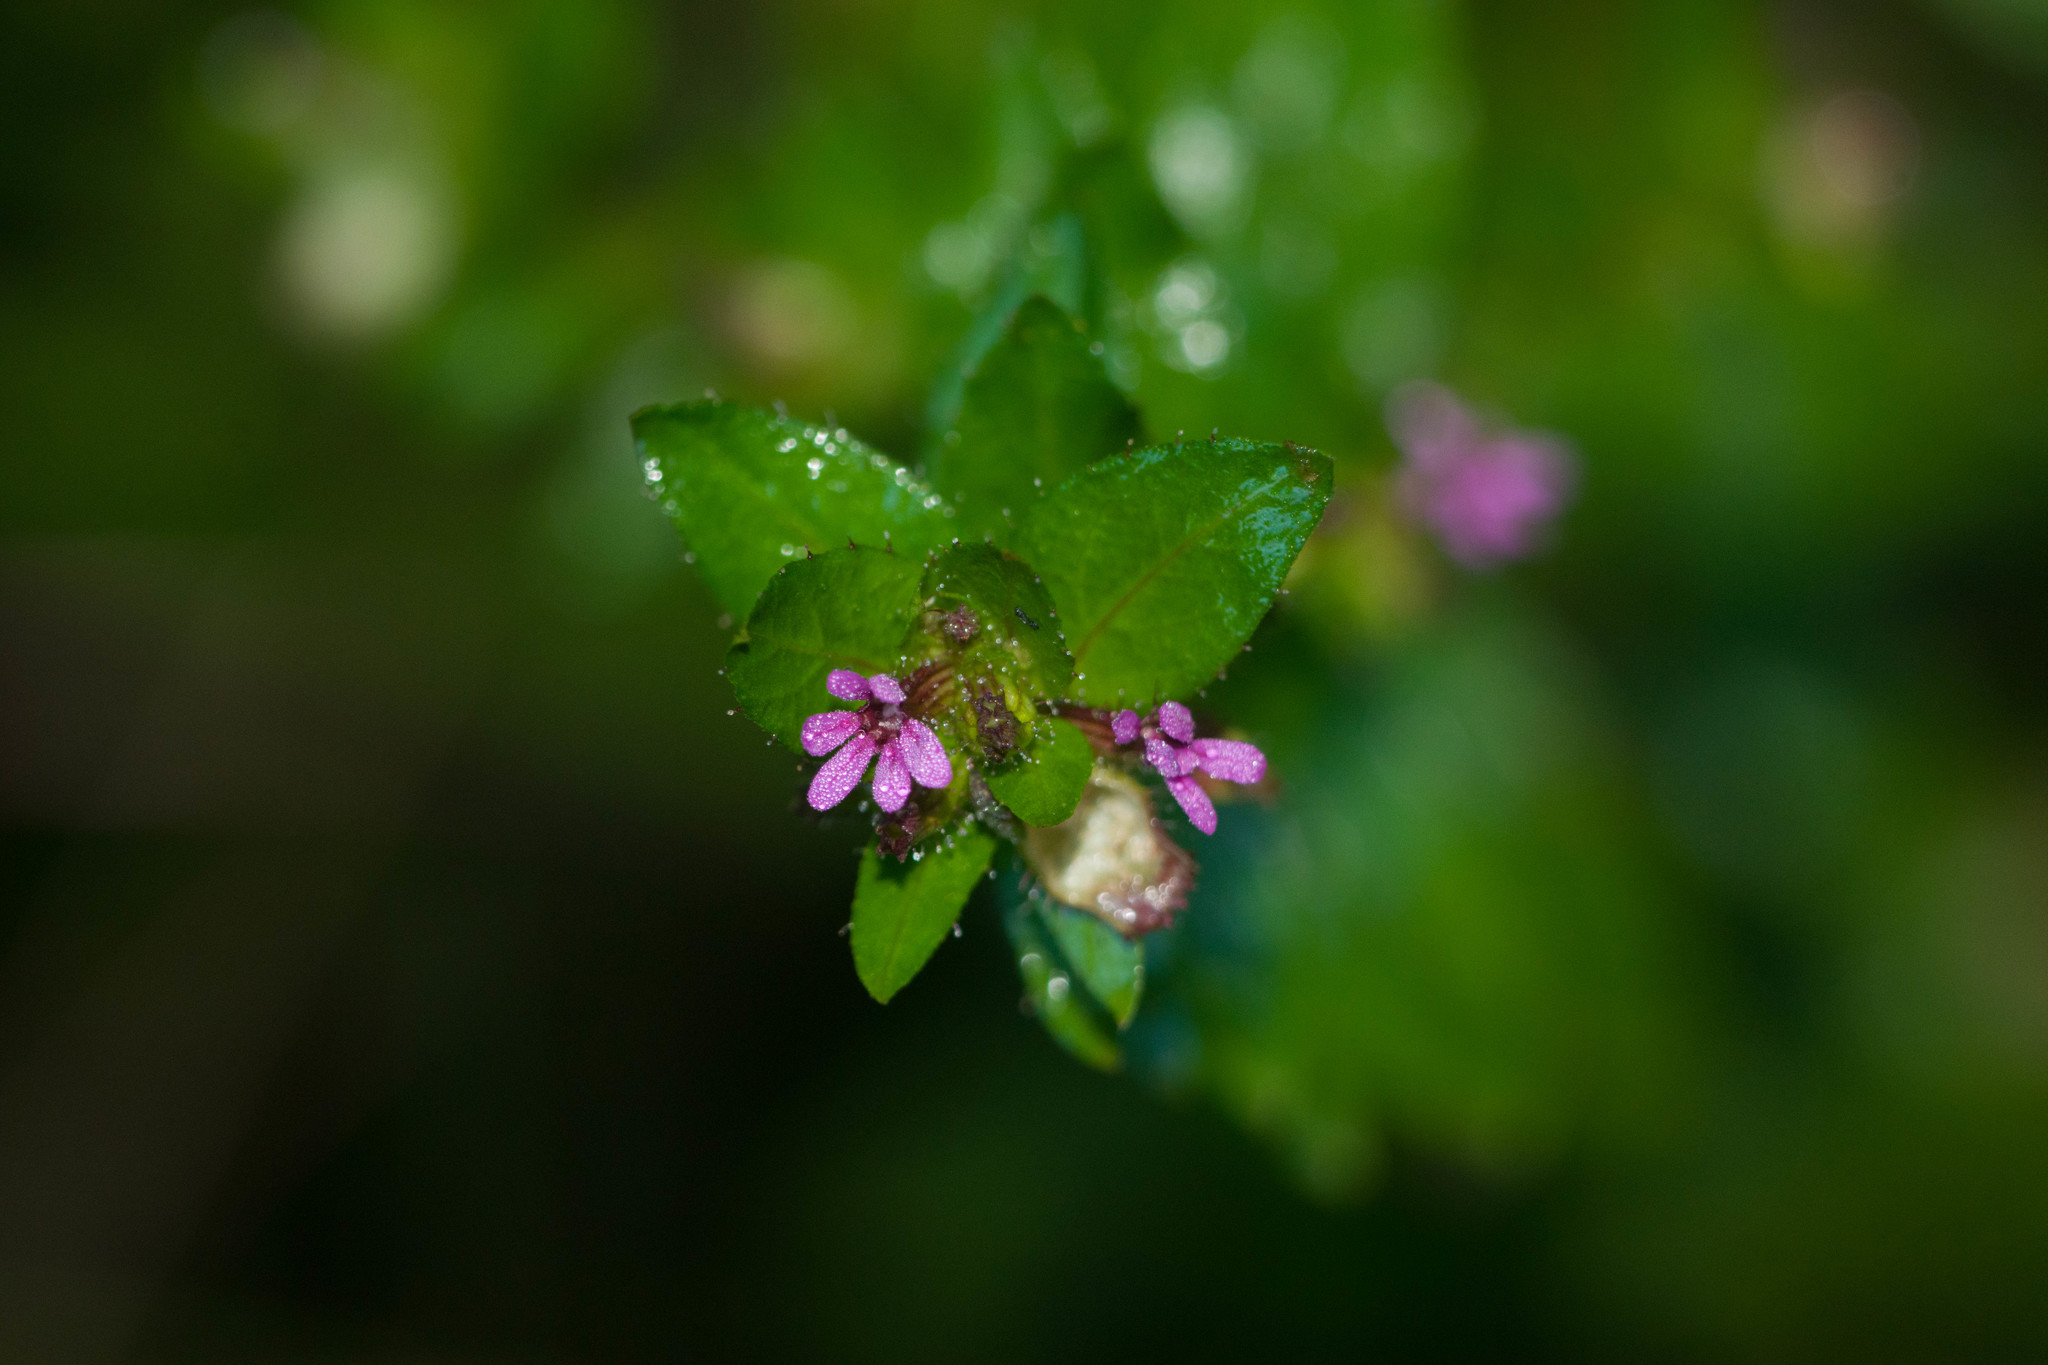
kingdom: Plantae
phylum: Tracheophyta
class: Magnoliopsida
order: Myrtales
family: Lythraceae
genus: Cuphea
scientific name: Cuphea carthagenensis
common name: Colombian waxweed
